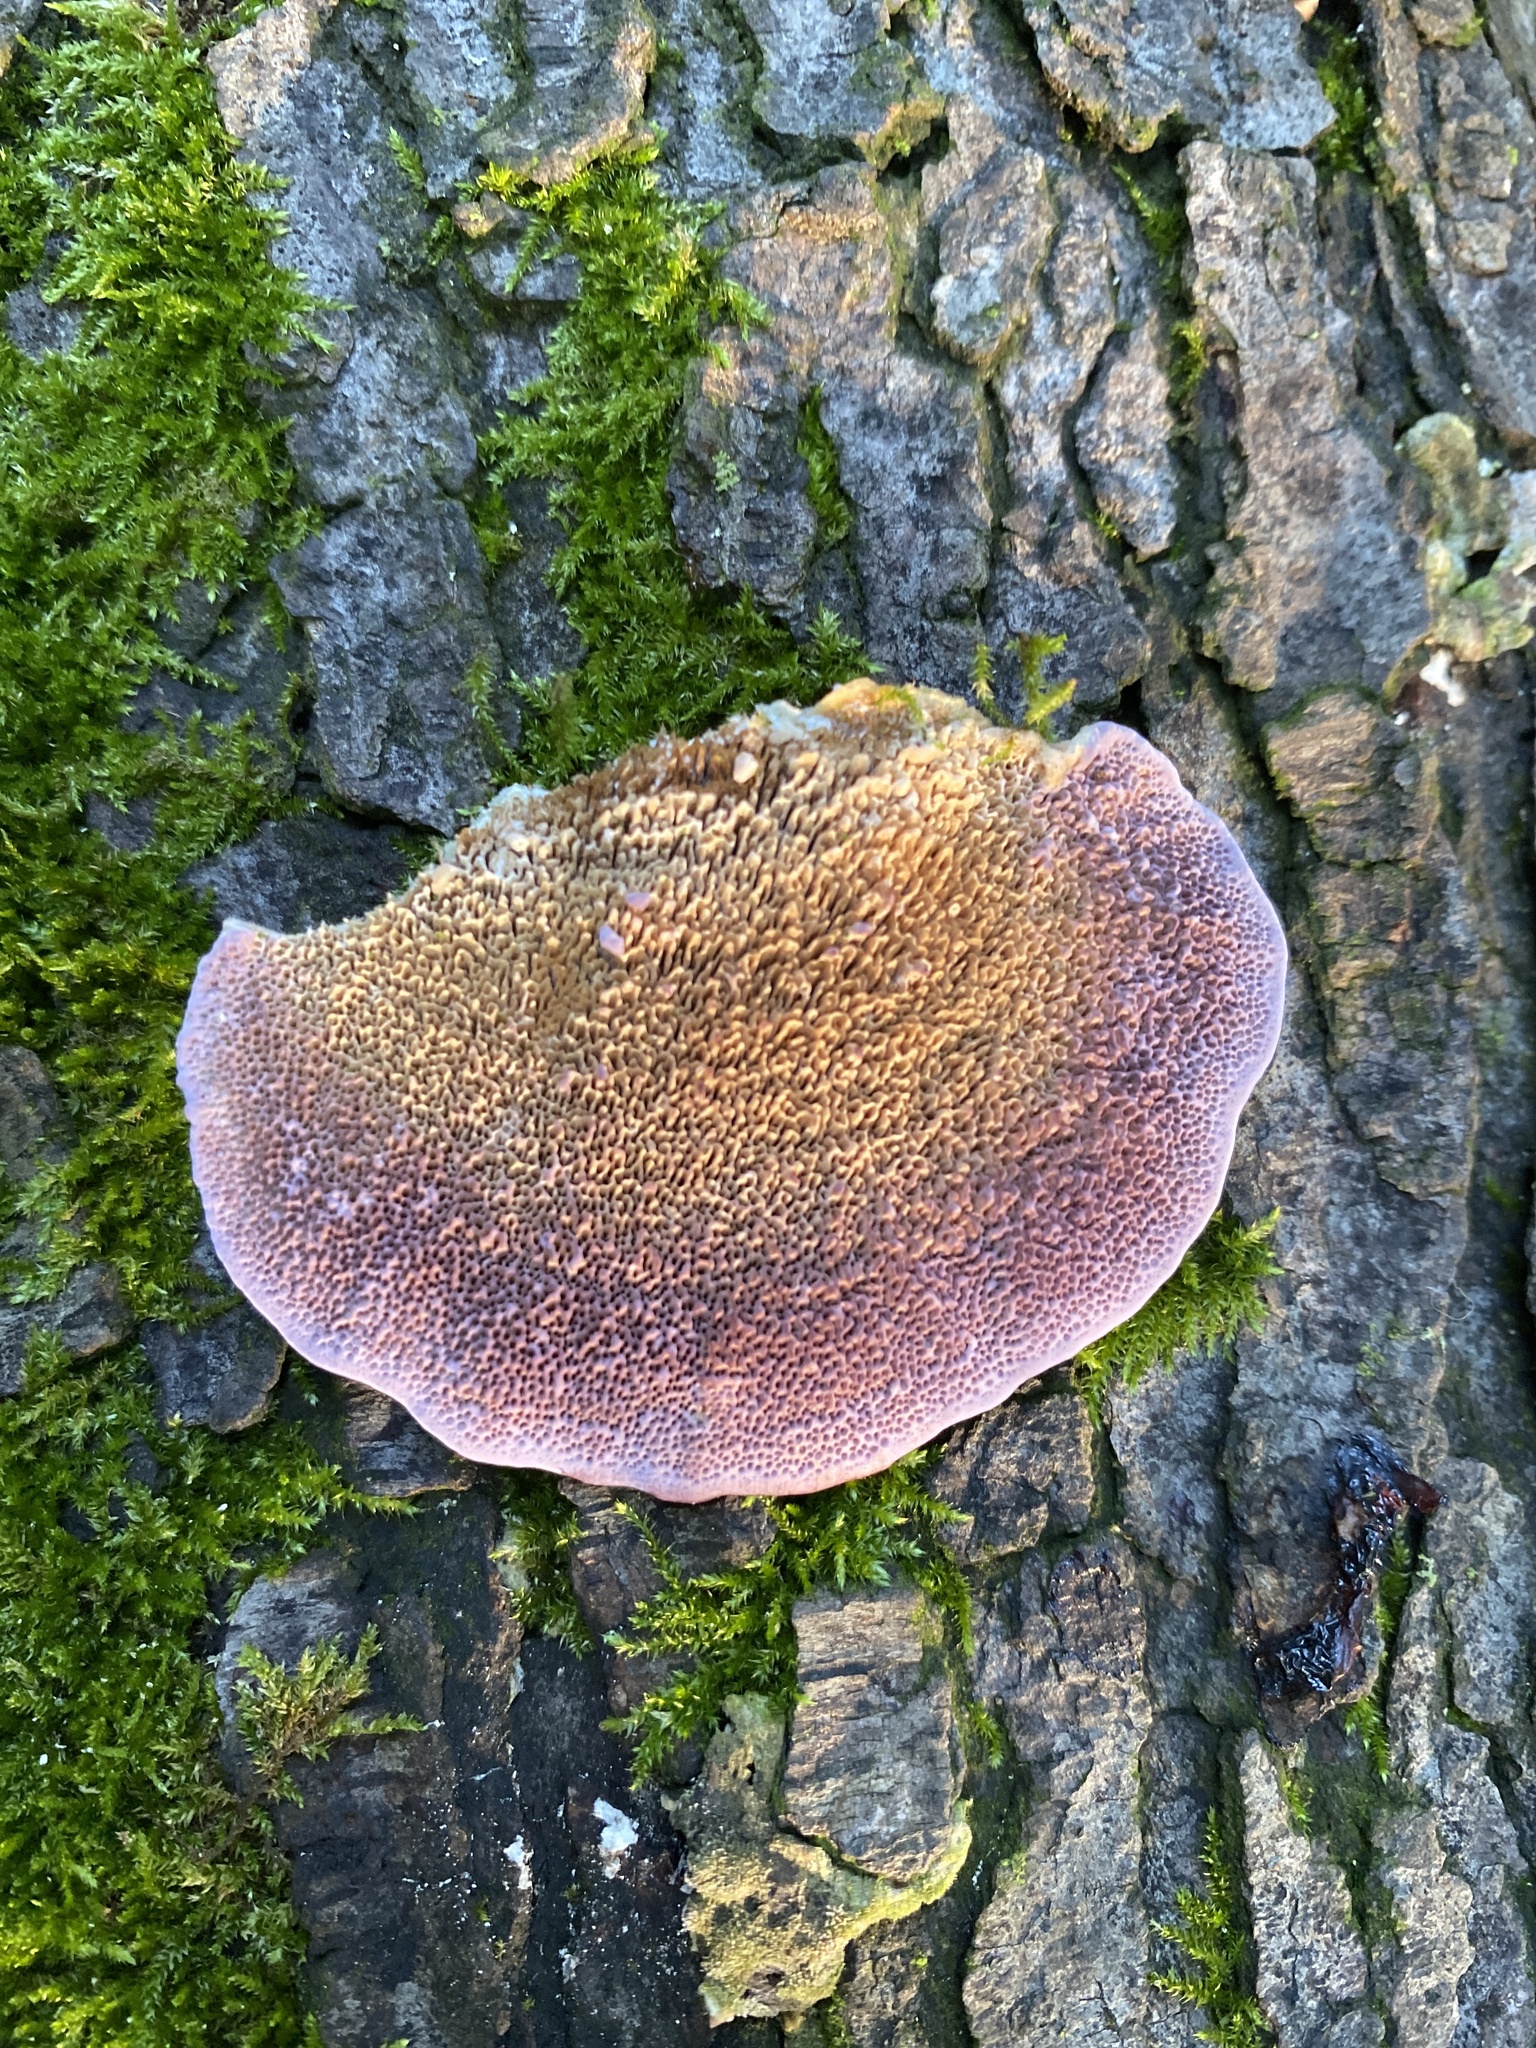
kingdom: Fungi
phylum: Basidiomycota
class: Agaricomycetes
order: Hymenochaetales
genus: Trichaptum
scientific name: Trichaptum biforme
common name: Violet-toothed polypore
